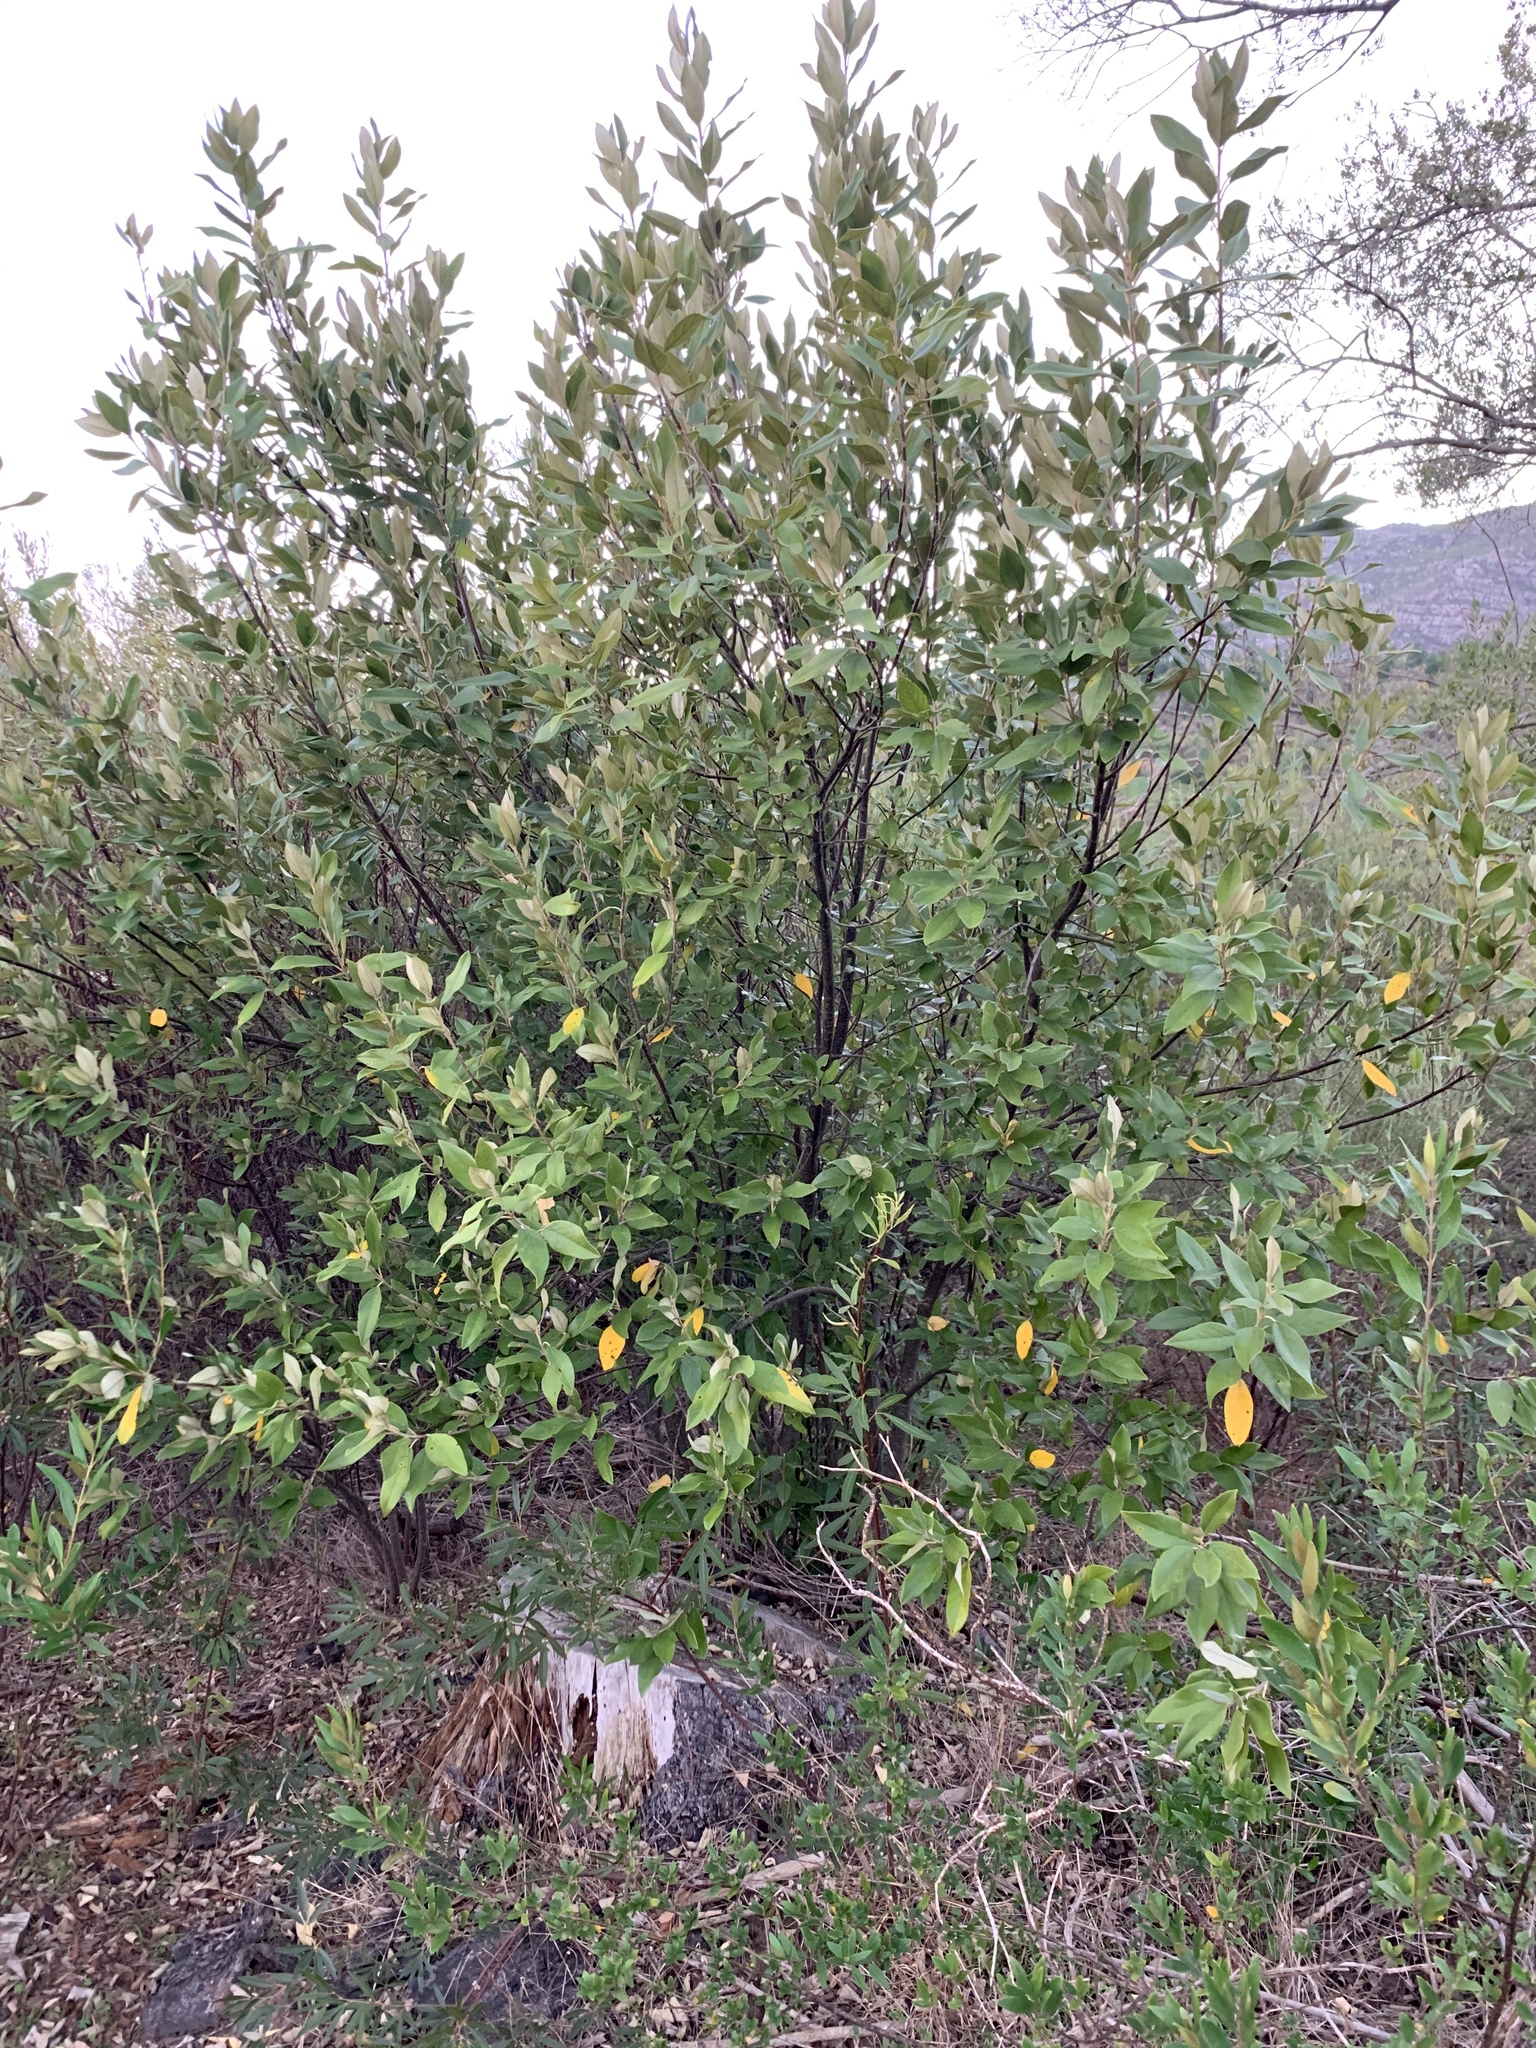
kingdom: Plantae
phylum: Tracheophyta
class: Magnoliopsida
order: Malpighiales
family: Achariaceae
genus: Kiggelaria
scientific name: Kiggelaria africana
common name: Wild peach
